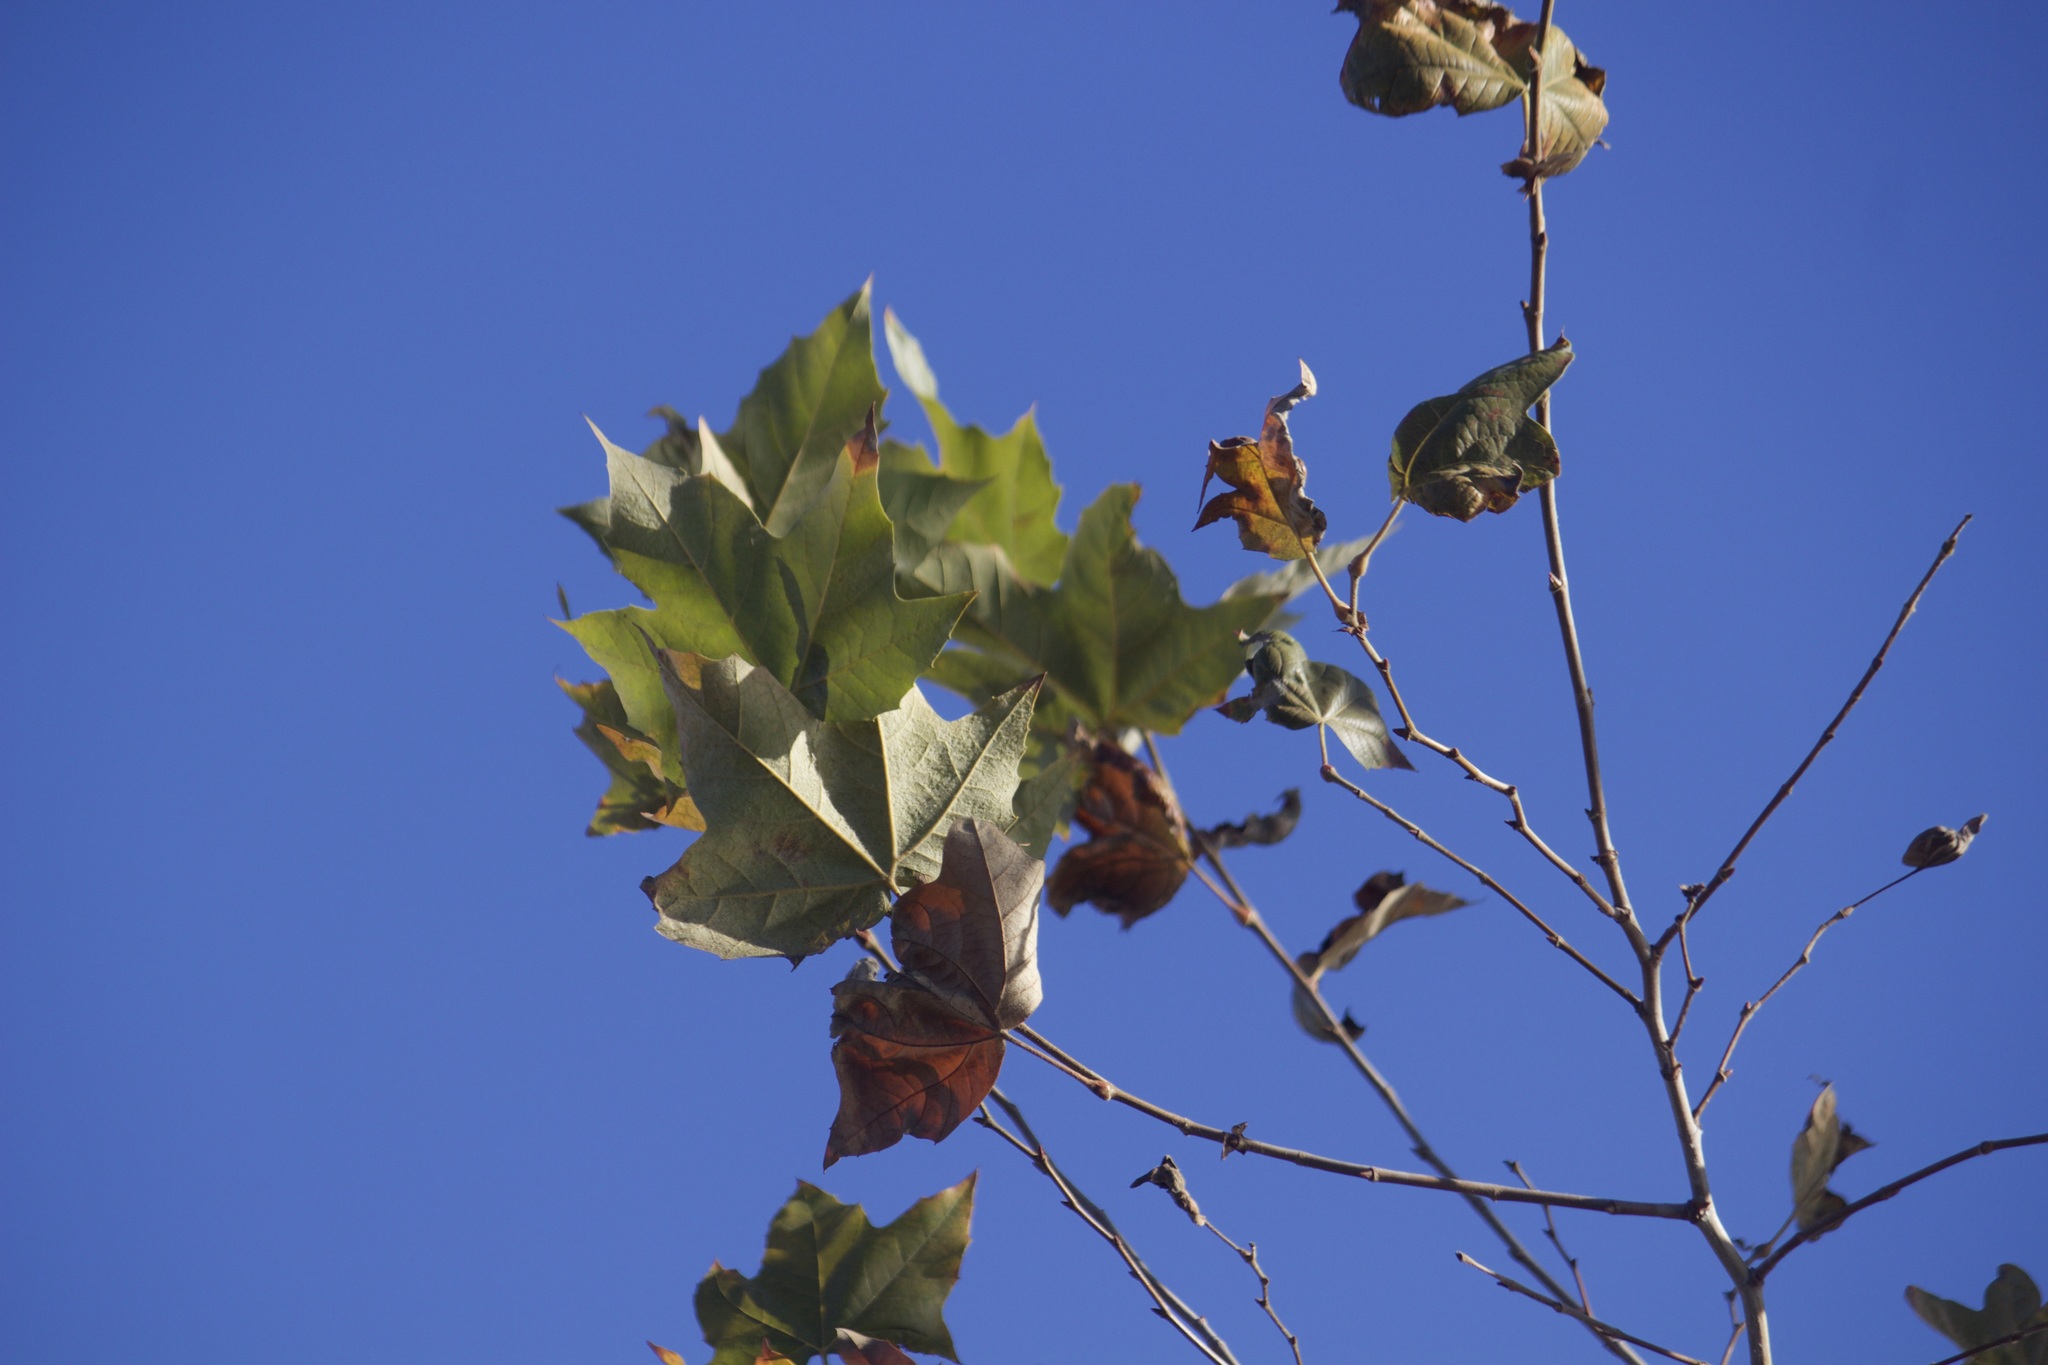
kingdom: Plantae
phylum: Tracheophyta
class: Magnoliopsida
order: Proteales
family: Platanaceae
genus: Platanus
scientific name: Platanus racemosa
